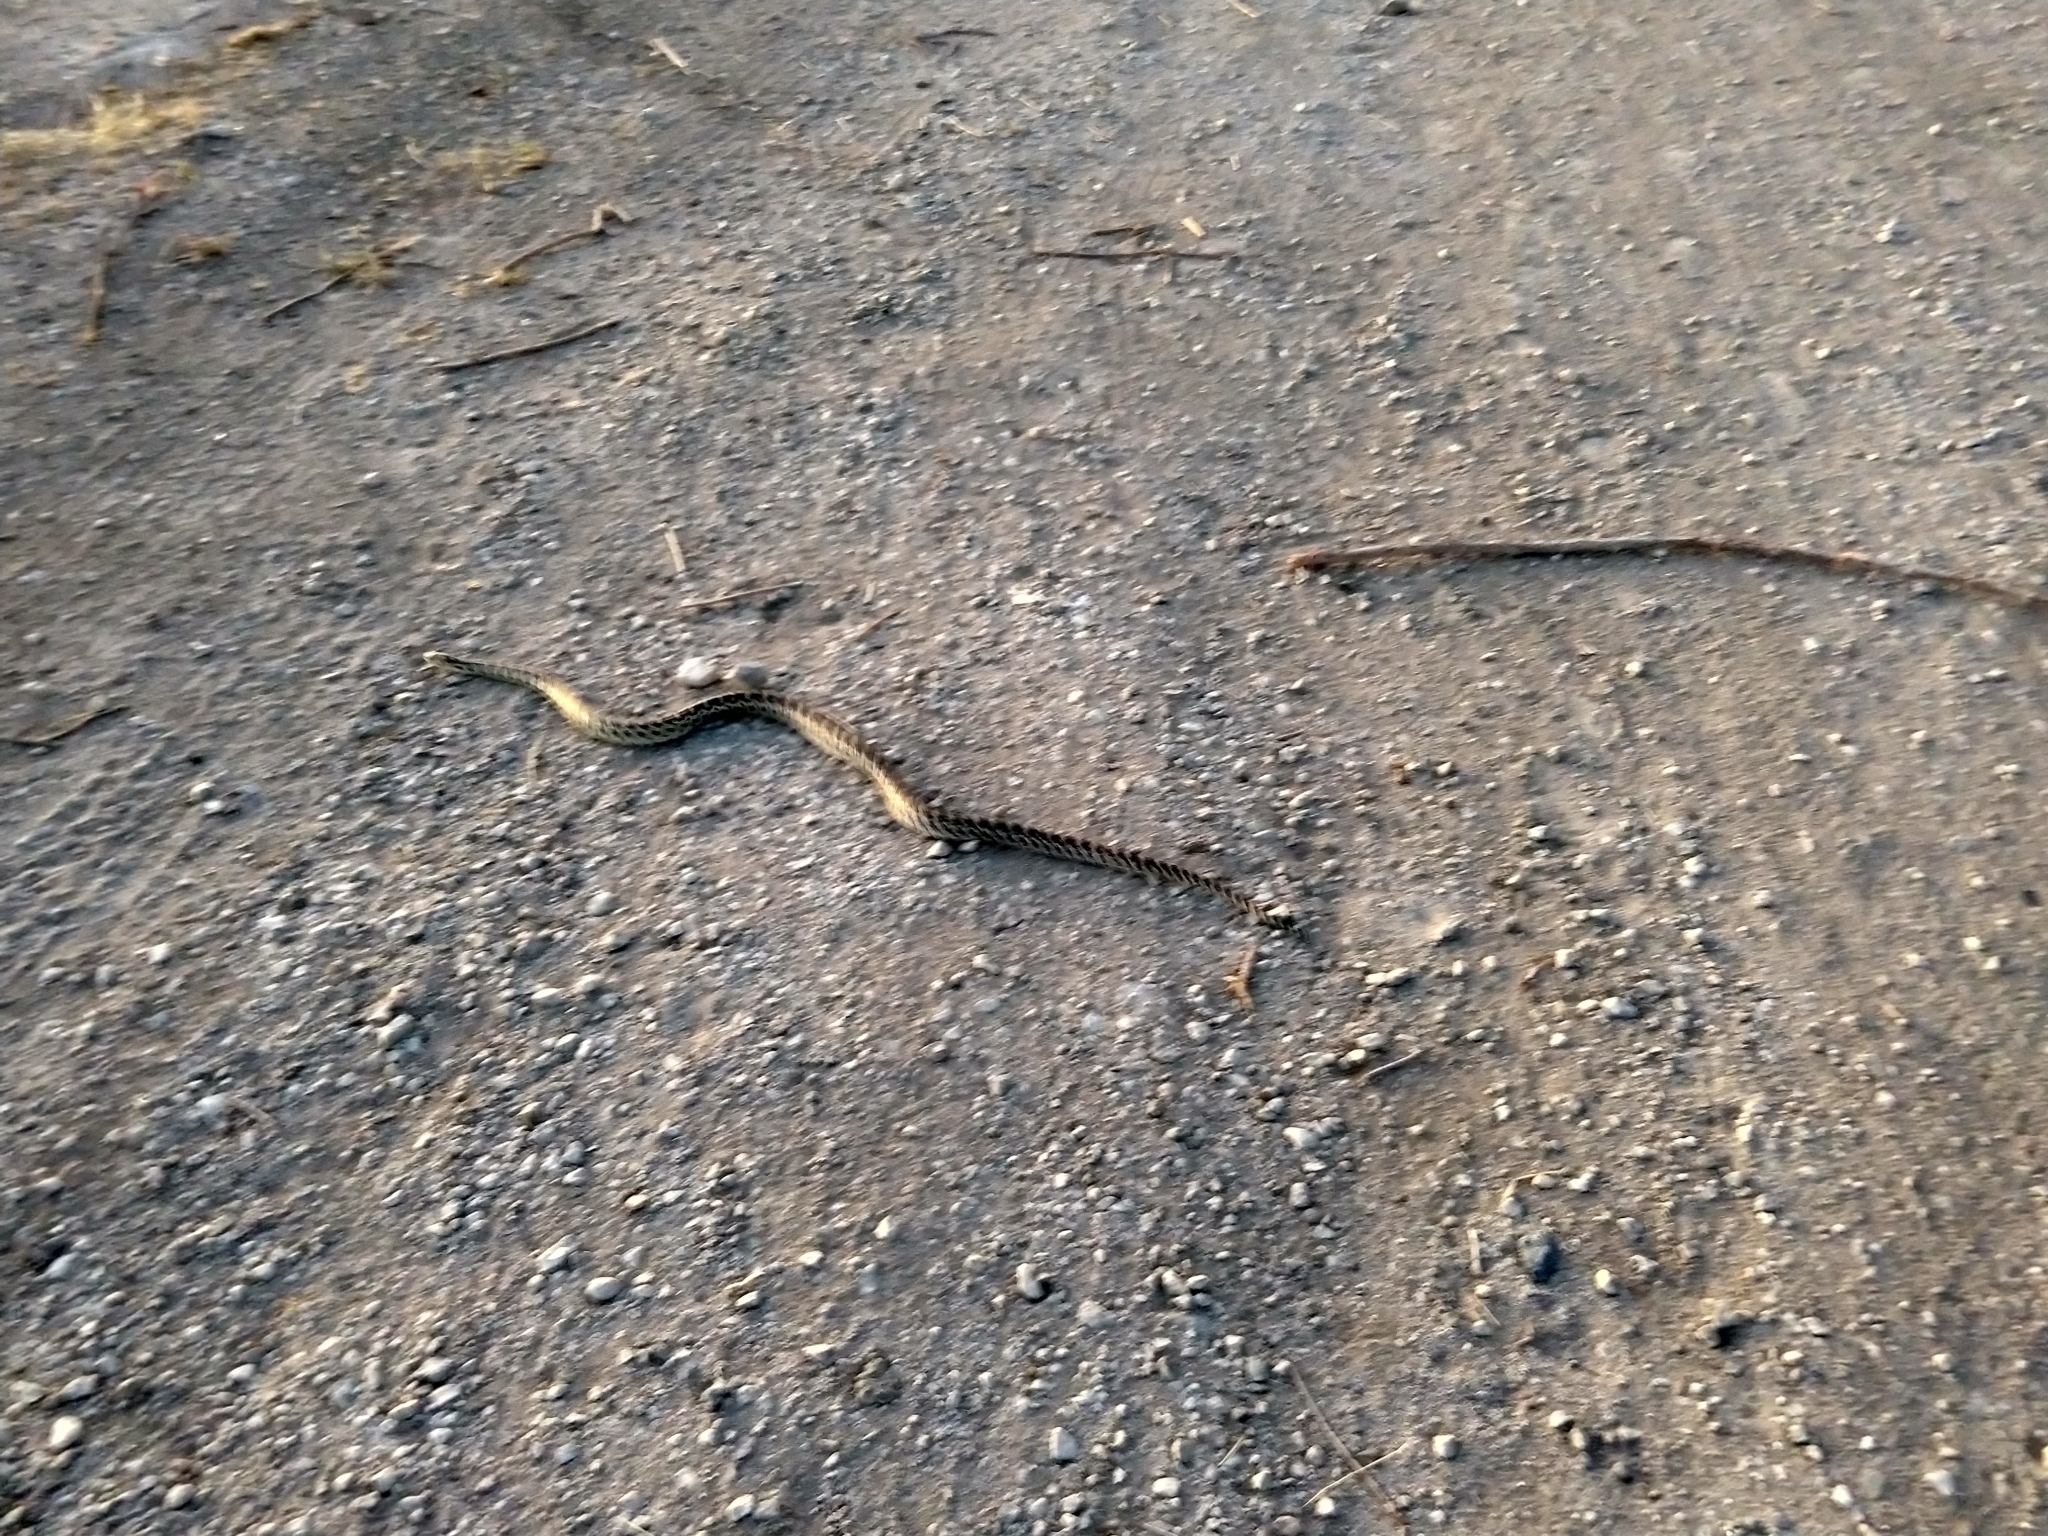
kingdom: Animalia
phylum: Chordata
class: Squamata
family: Colubridae
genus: Pituophis
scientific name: Pituophis catenifer
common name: Gopher snake
